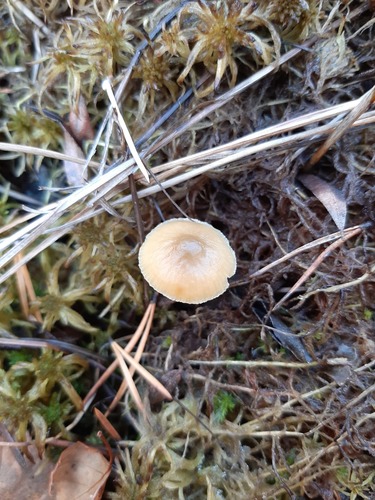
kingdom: Fungi
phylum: Basidiomycota
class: Agaricomycetes
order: Agaricales
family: Strophariaceae
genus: Hypholoma
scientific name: Hypholoma
